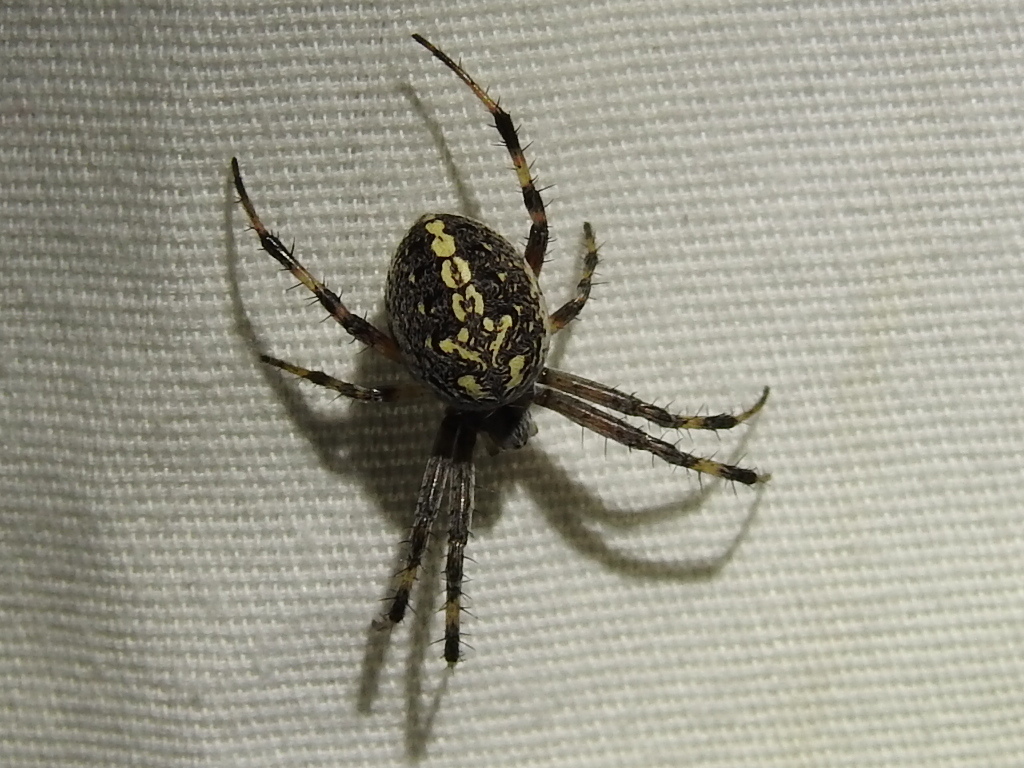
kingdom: Animalia
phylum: Arthropoda
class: Arachnida
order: Araneae
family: Araneidae
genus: Neoscona
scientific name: Neoscona oaxacensis
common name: Orb weavers
